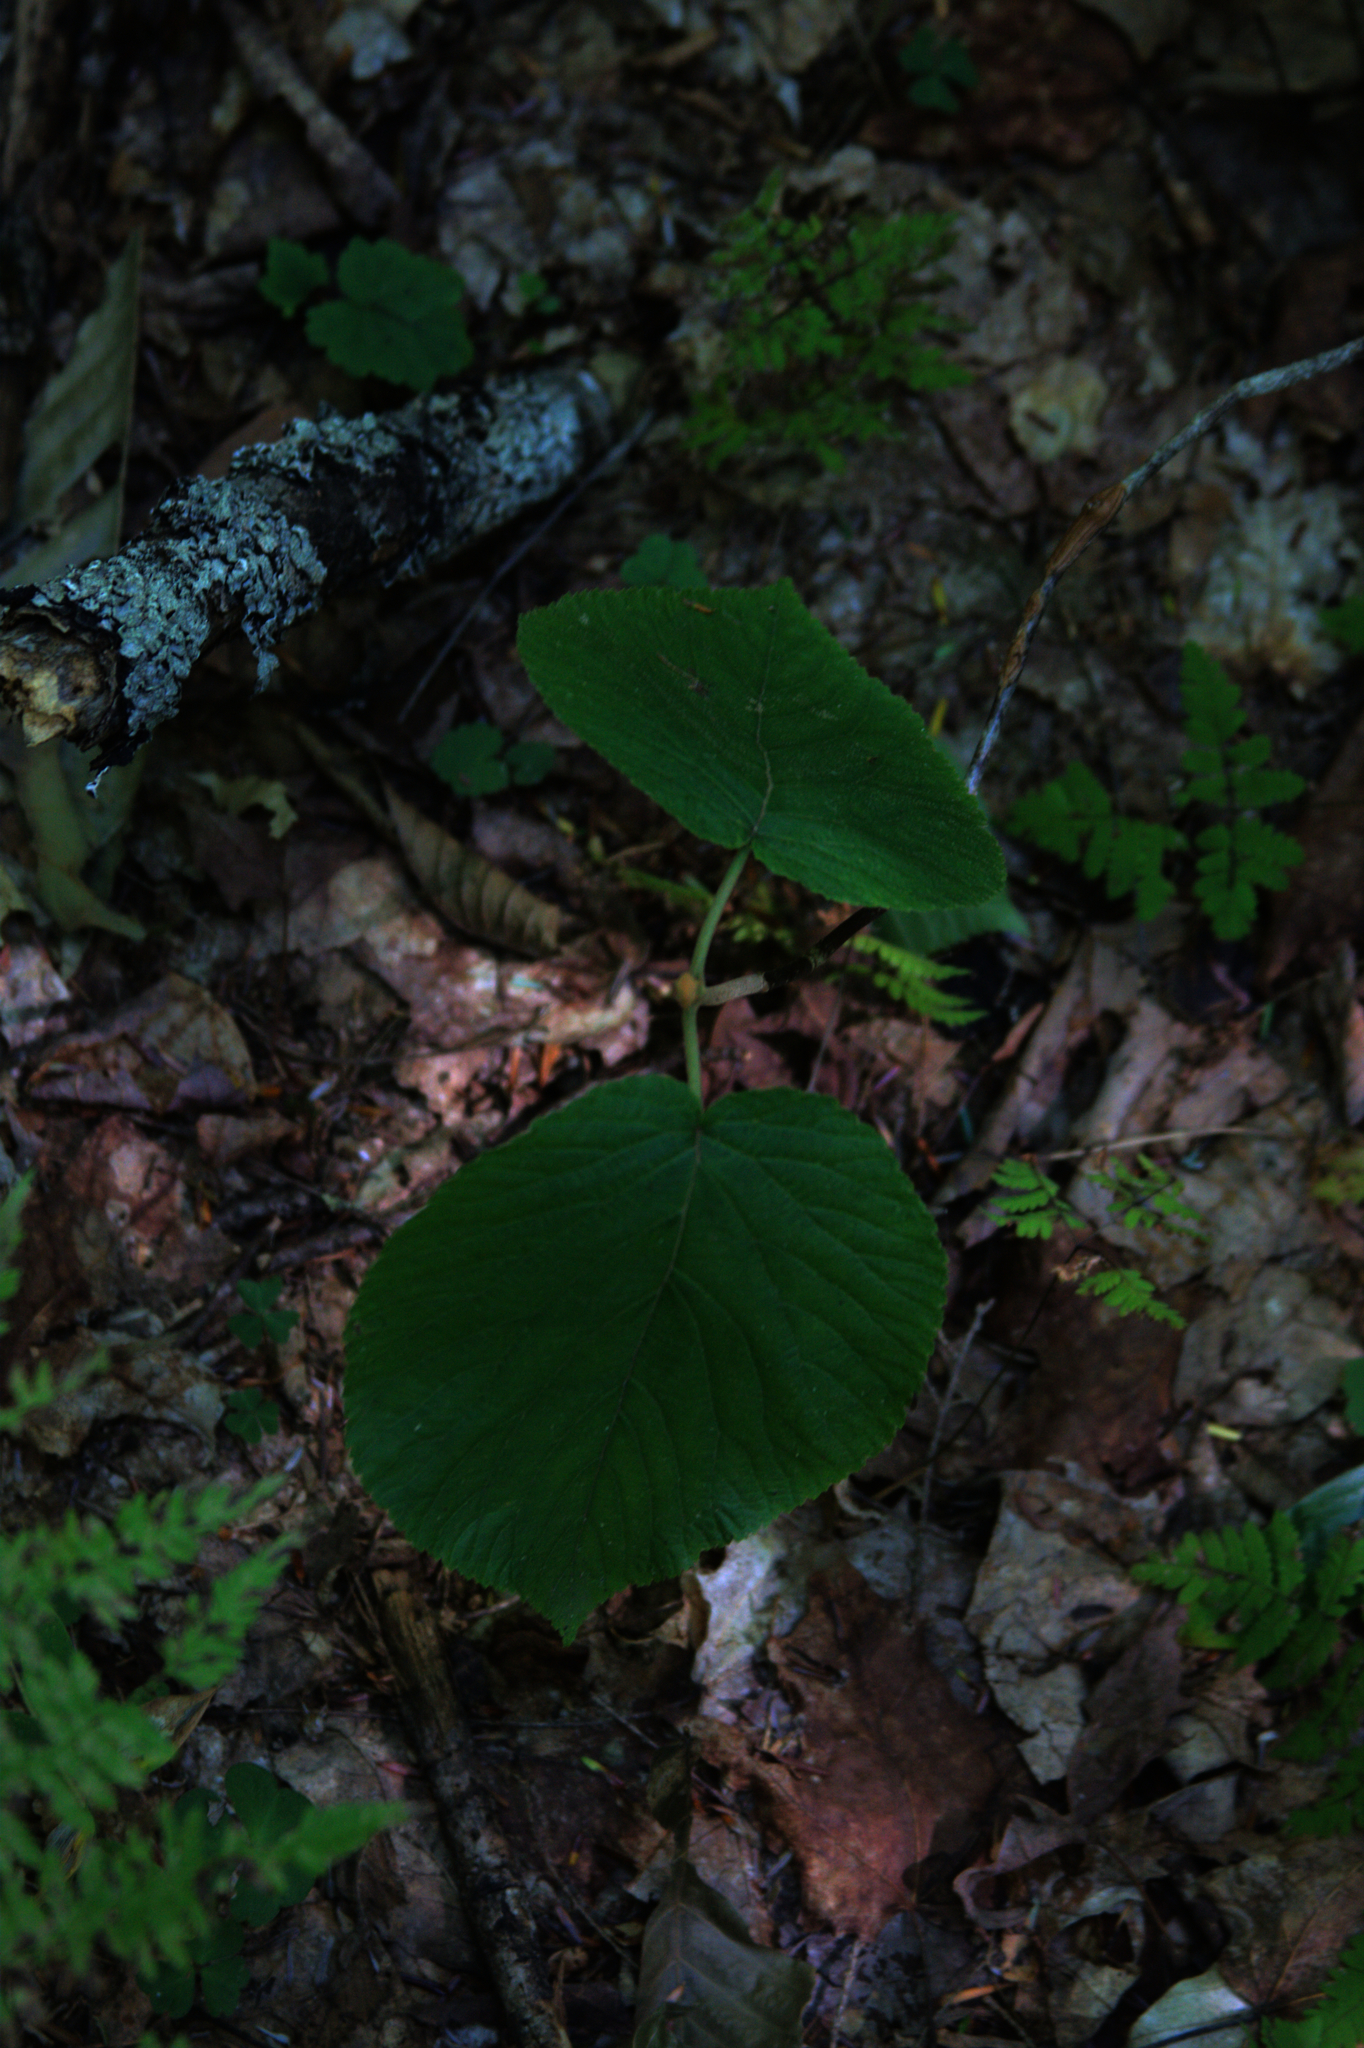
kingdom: Plantae
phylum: Tracheophyta
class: Magnoliopsida
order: Dipsacales
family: Viburnaceae
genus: Viburnum
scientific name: Viburnum lantanoides
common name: Hobblebush
